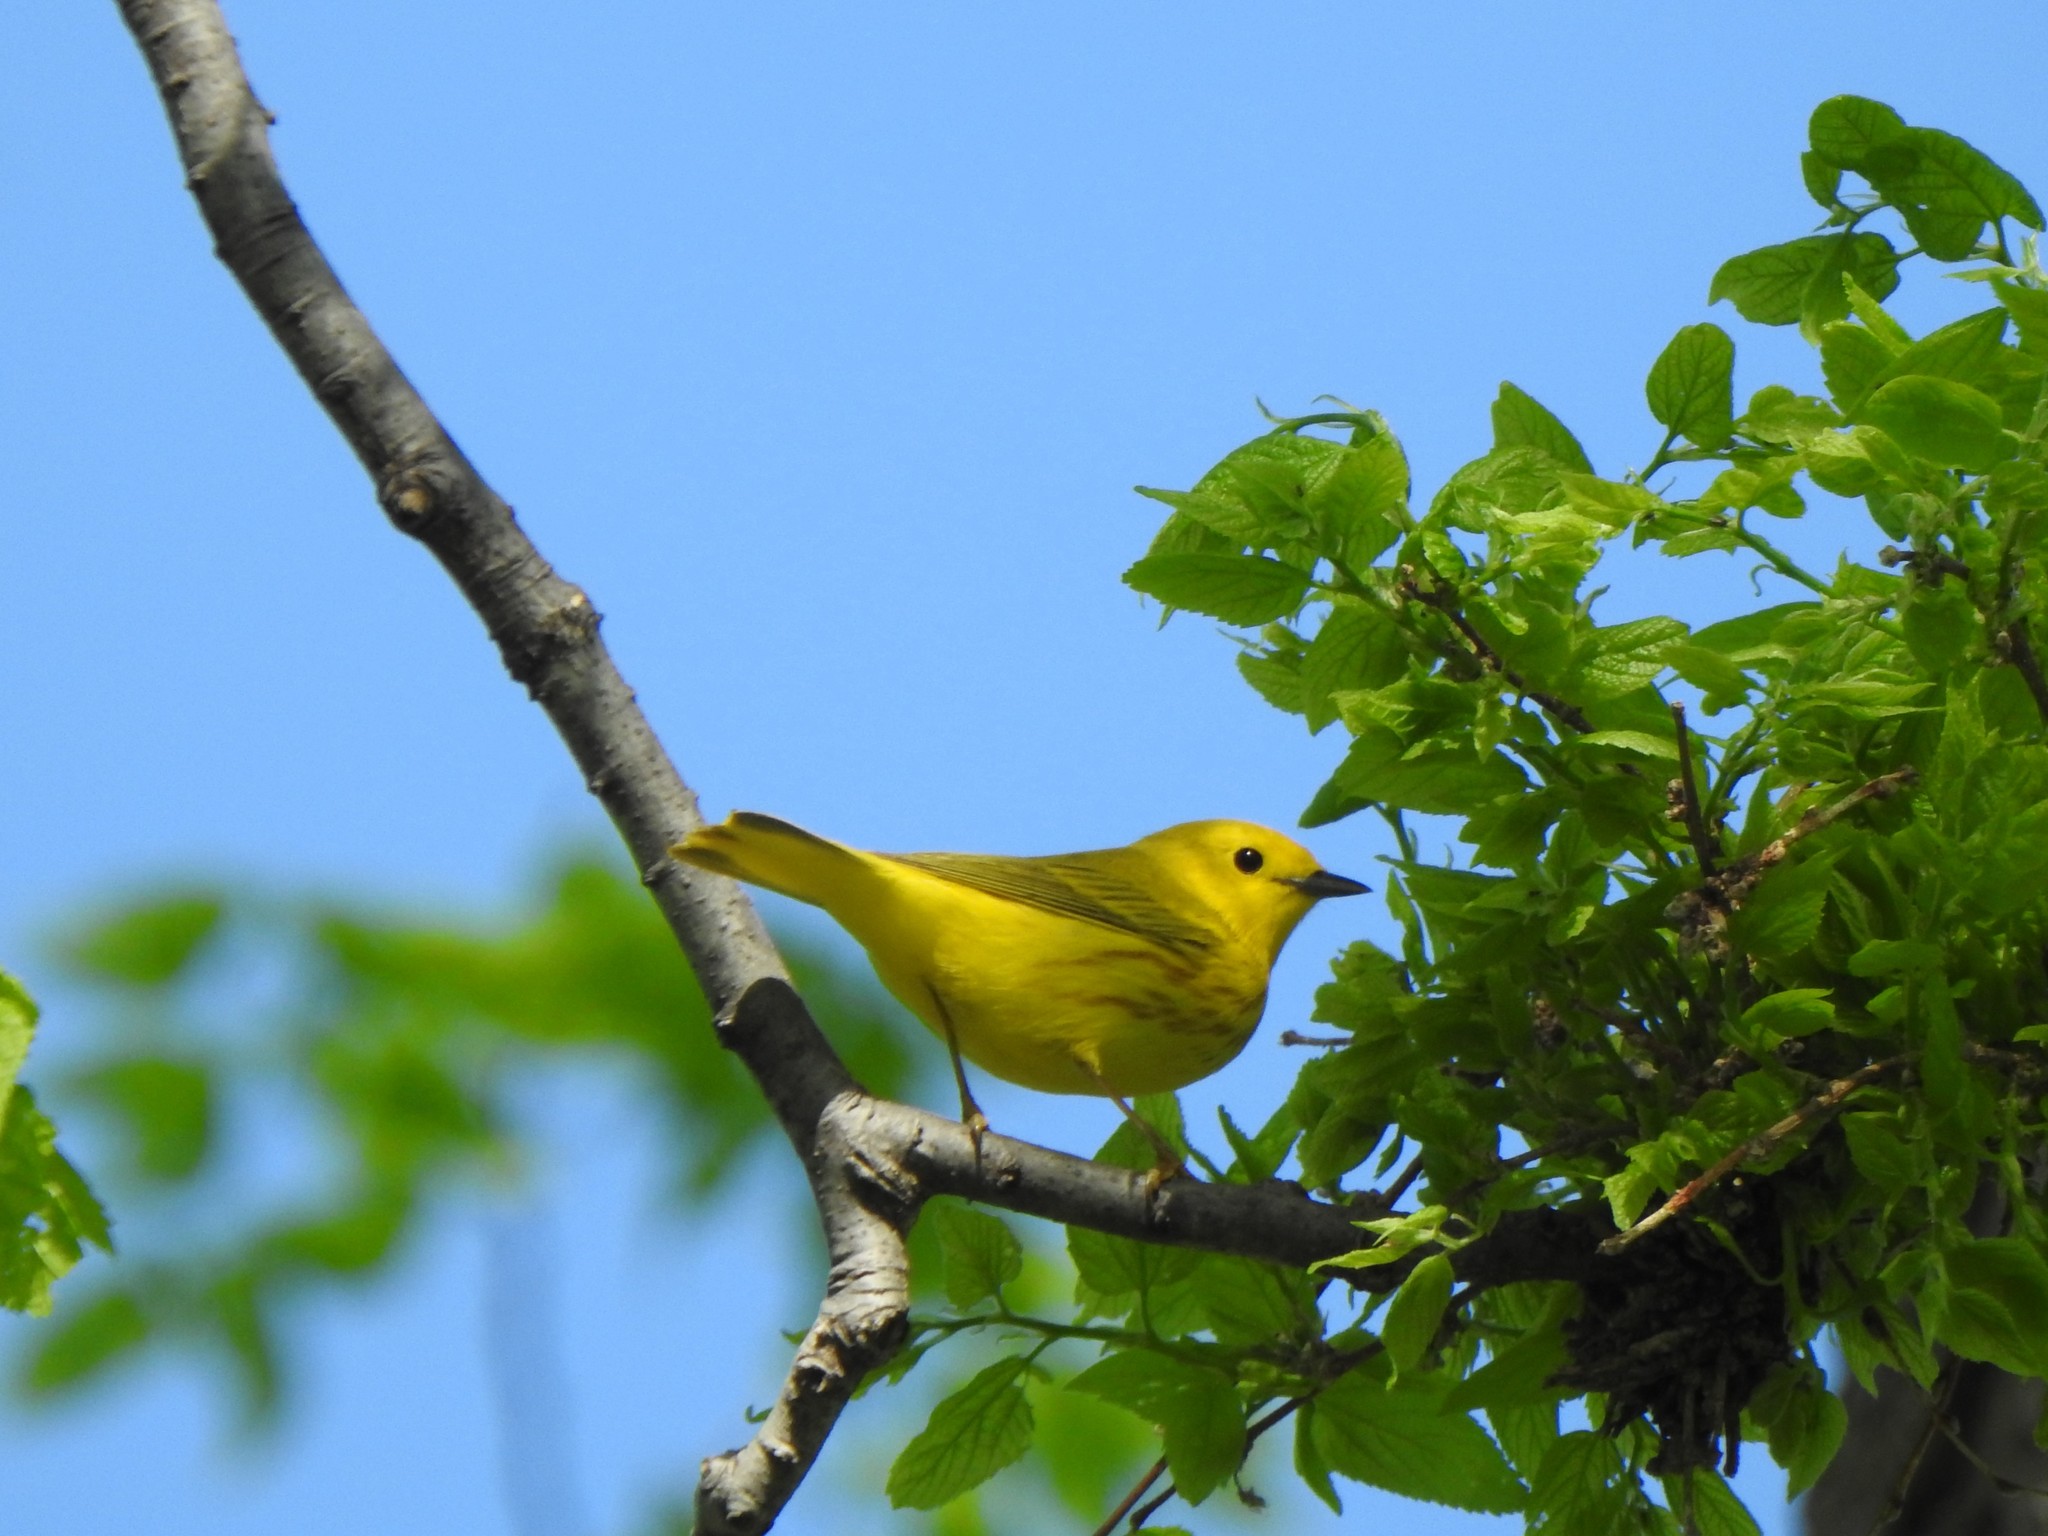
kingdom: Animalia
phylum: Chordata
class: Aves
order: Passeriformes
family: Parulidae
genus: Setophaga
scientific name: Setophaga petechia
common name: Yellow warbler
